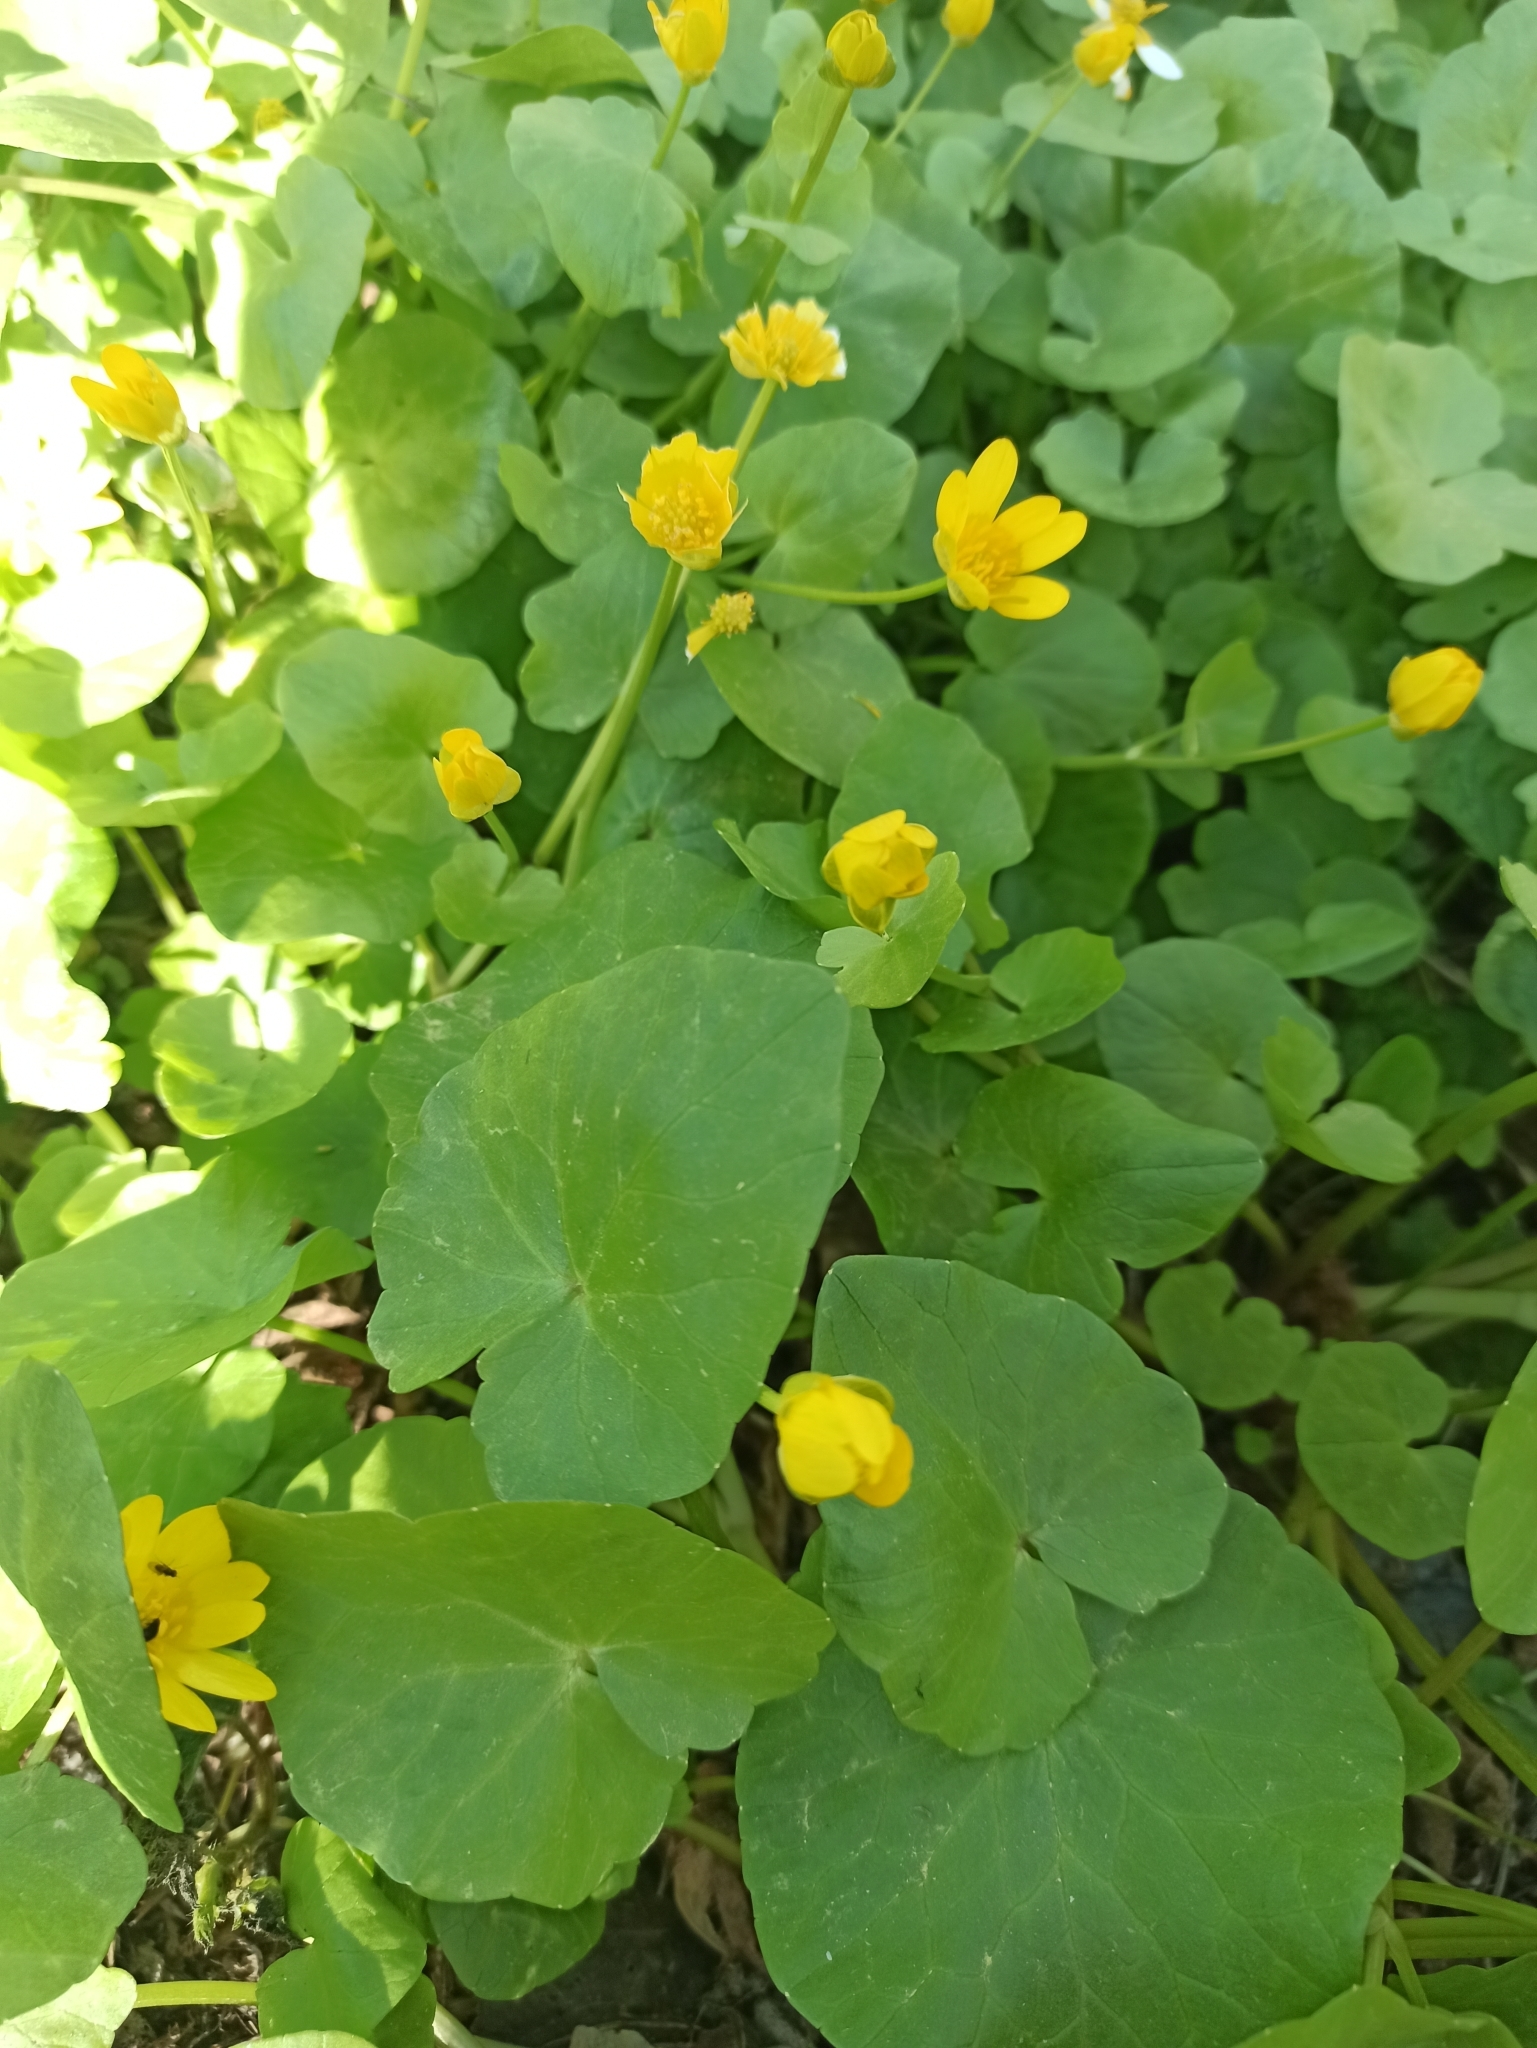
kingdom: Plantae
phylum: Tracheophyta
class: Magnoliopsida
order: Ranunculales
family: Ranunculaceae
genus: Ficaria
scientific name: Ficaria verna
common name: Lesser celandine
